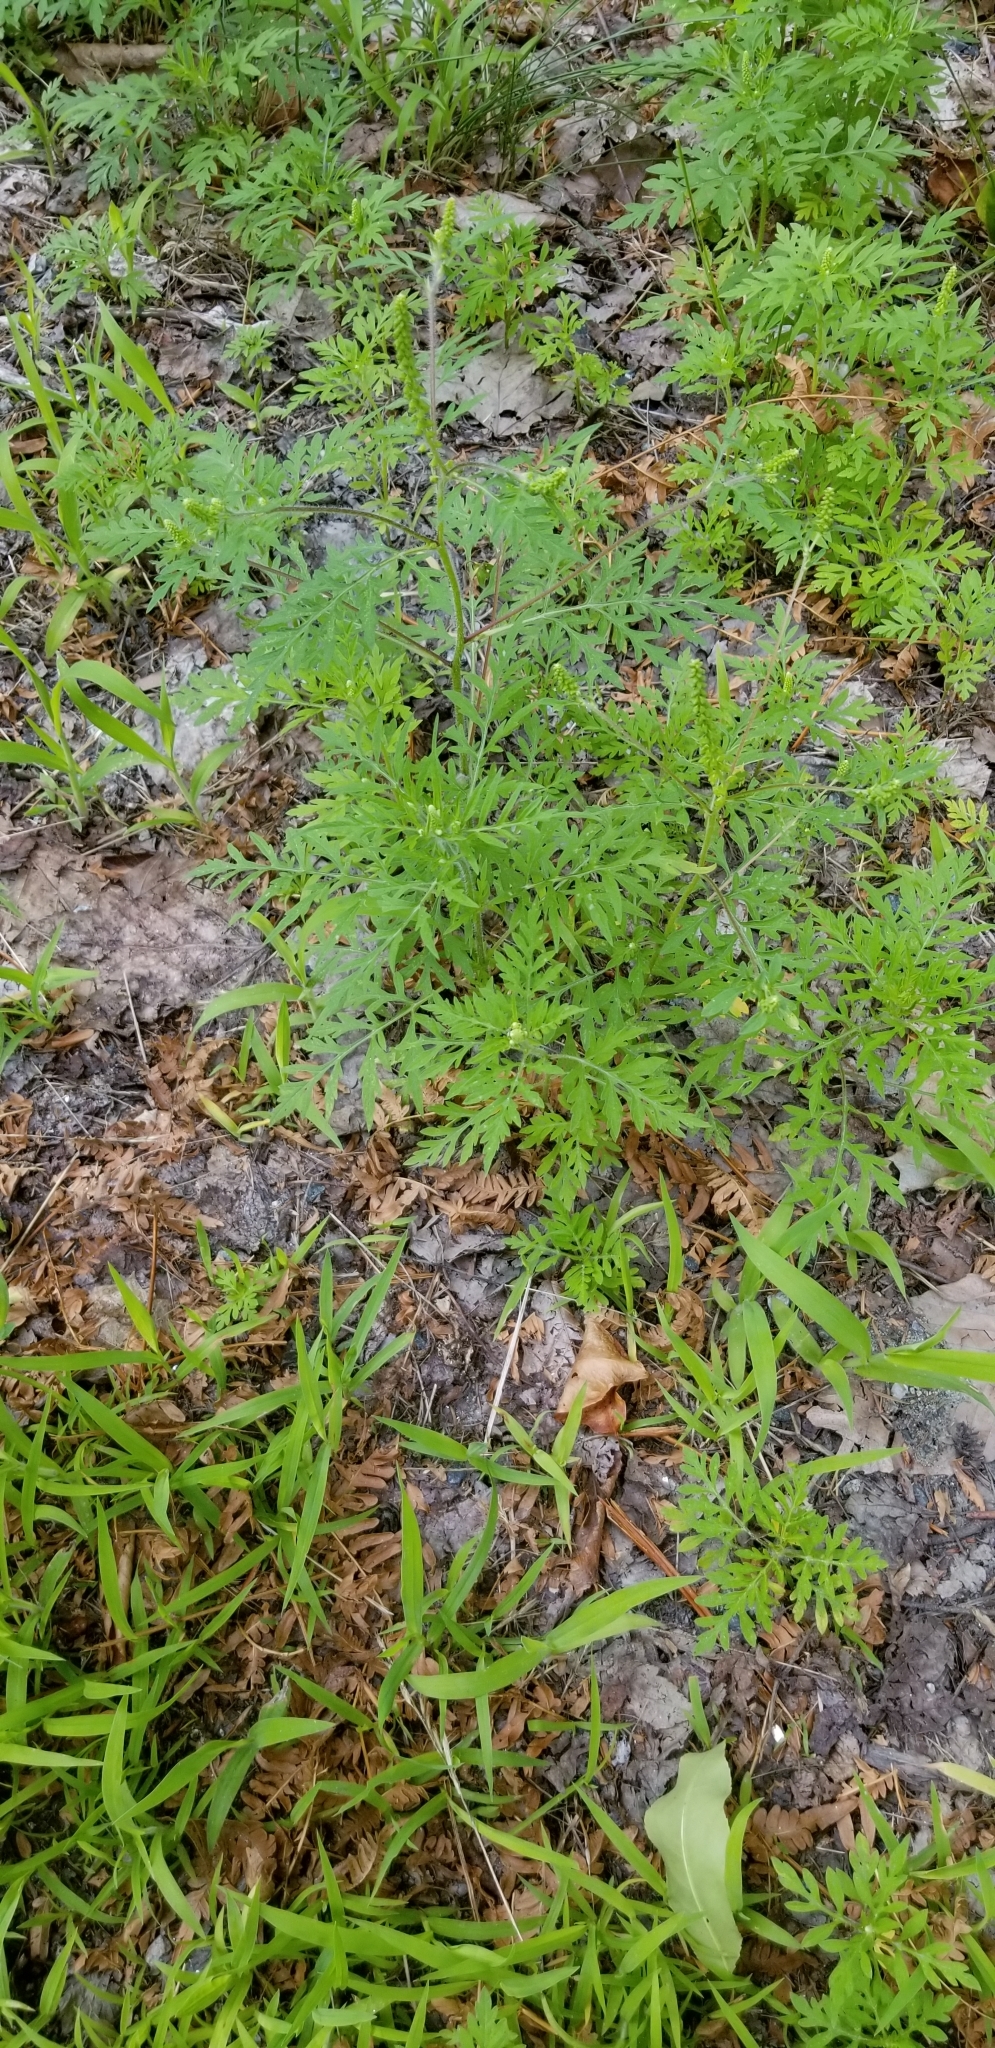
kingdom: Plantae
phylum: Tracheophyta
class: Magnoliopsida
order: Asterales
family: Asteraceae
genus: Ambrosia
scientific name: Ambrosia artemisiifolia
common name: Annual ragweed
